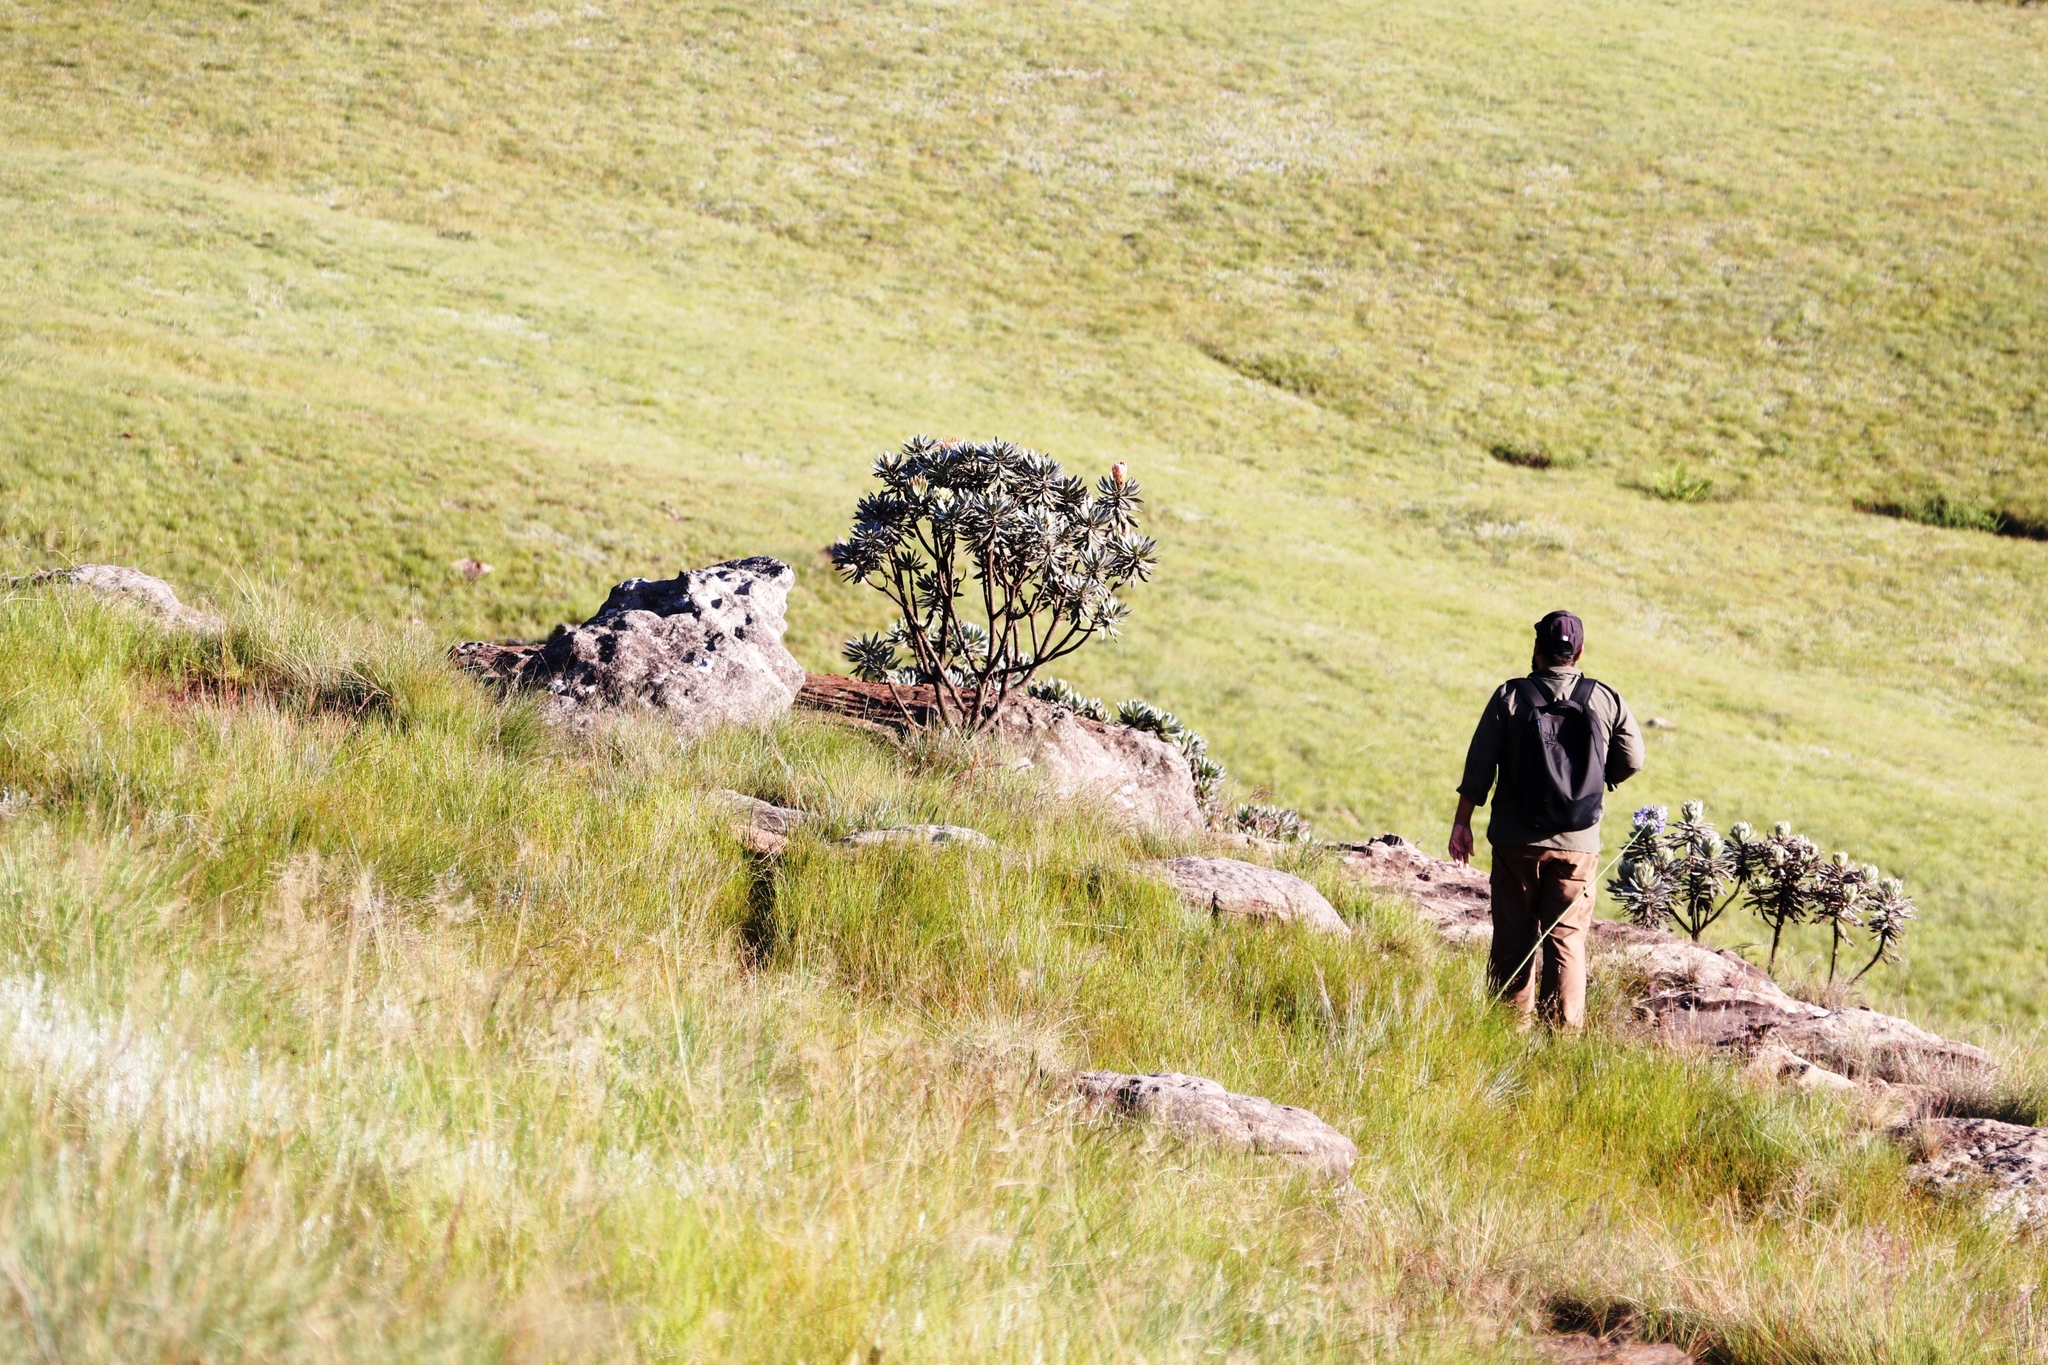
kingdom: Plantae
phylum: Tracheophyta
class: Magnoliopsida
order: Proteales
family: Proteaceae
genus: Protea
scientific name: Protea roupelliae
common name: Silver sugarbush
